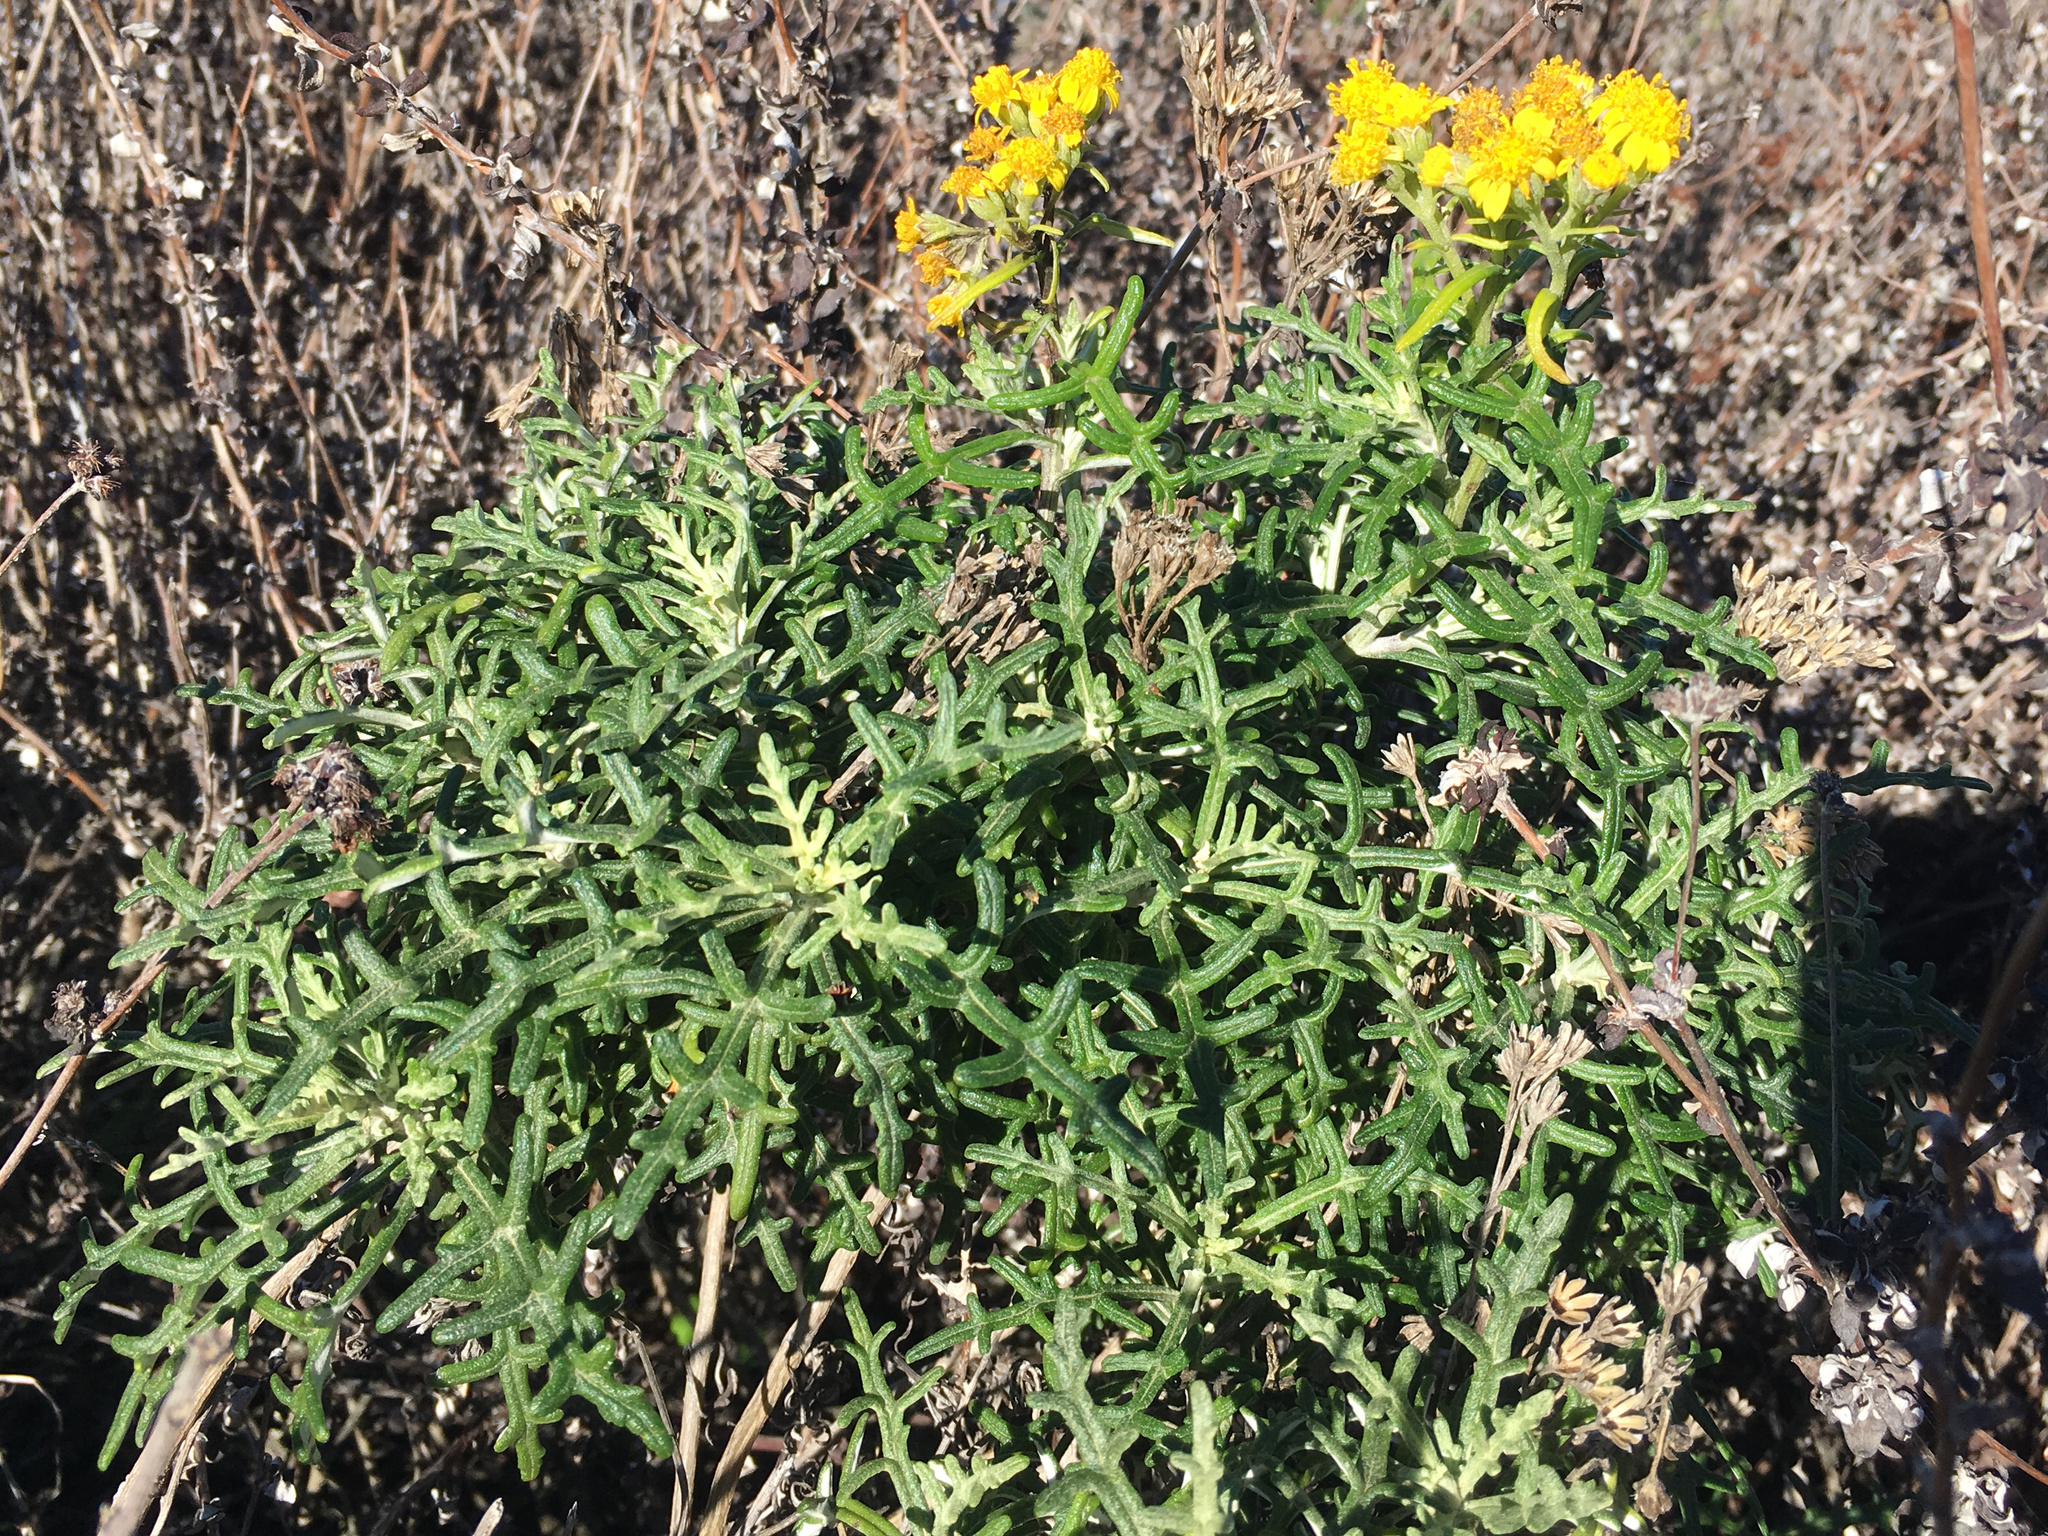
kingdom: Plantae
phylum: Tracheophyta
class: Magnoliopsida
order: Asterales
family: Asteraceae
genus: Eriophyllum
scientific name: Eriophyllum staechadifolium
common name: Lizardtail
